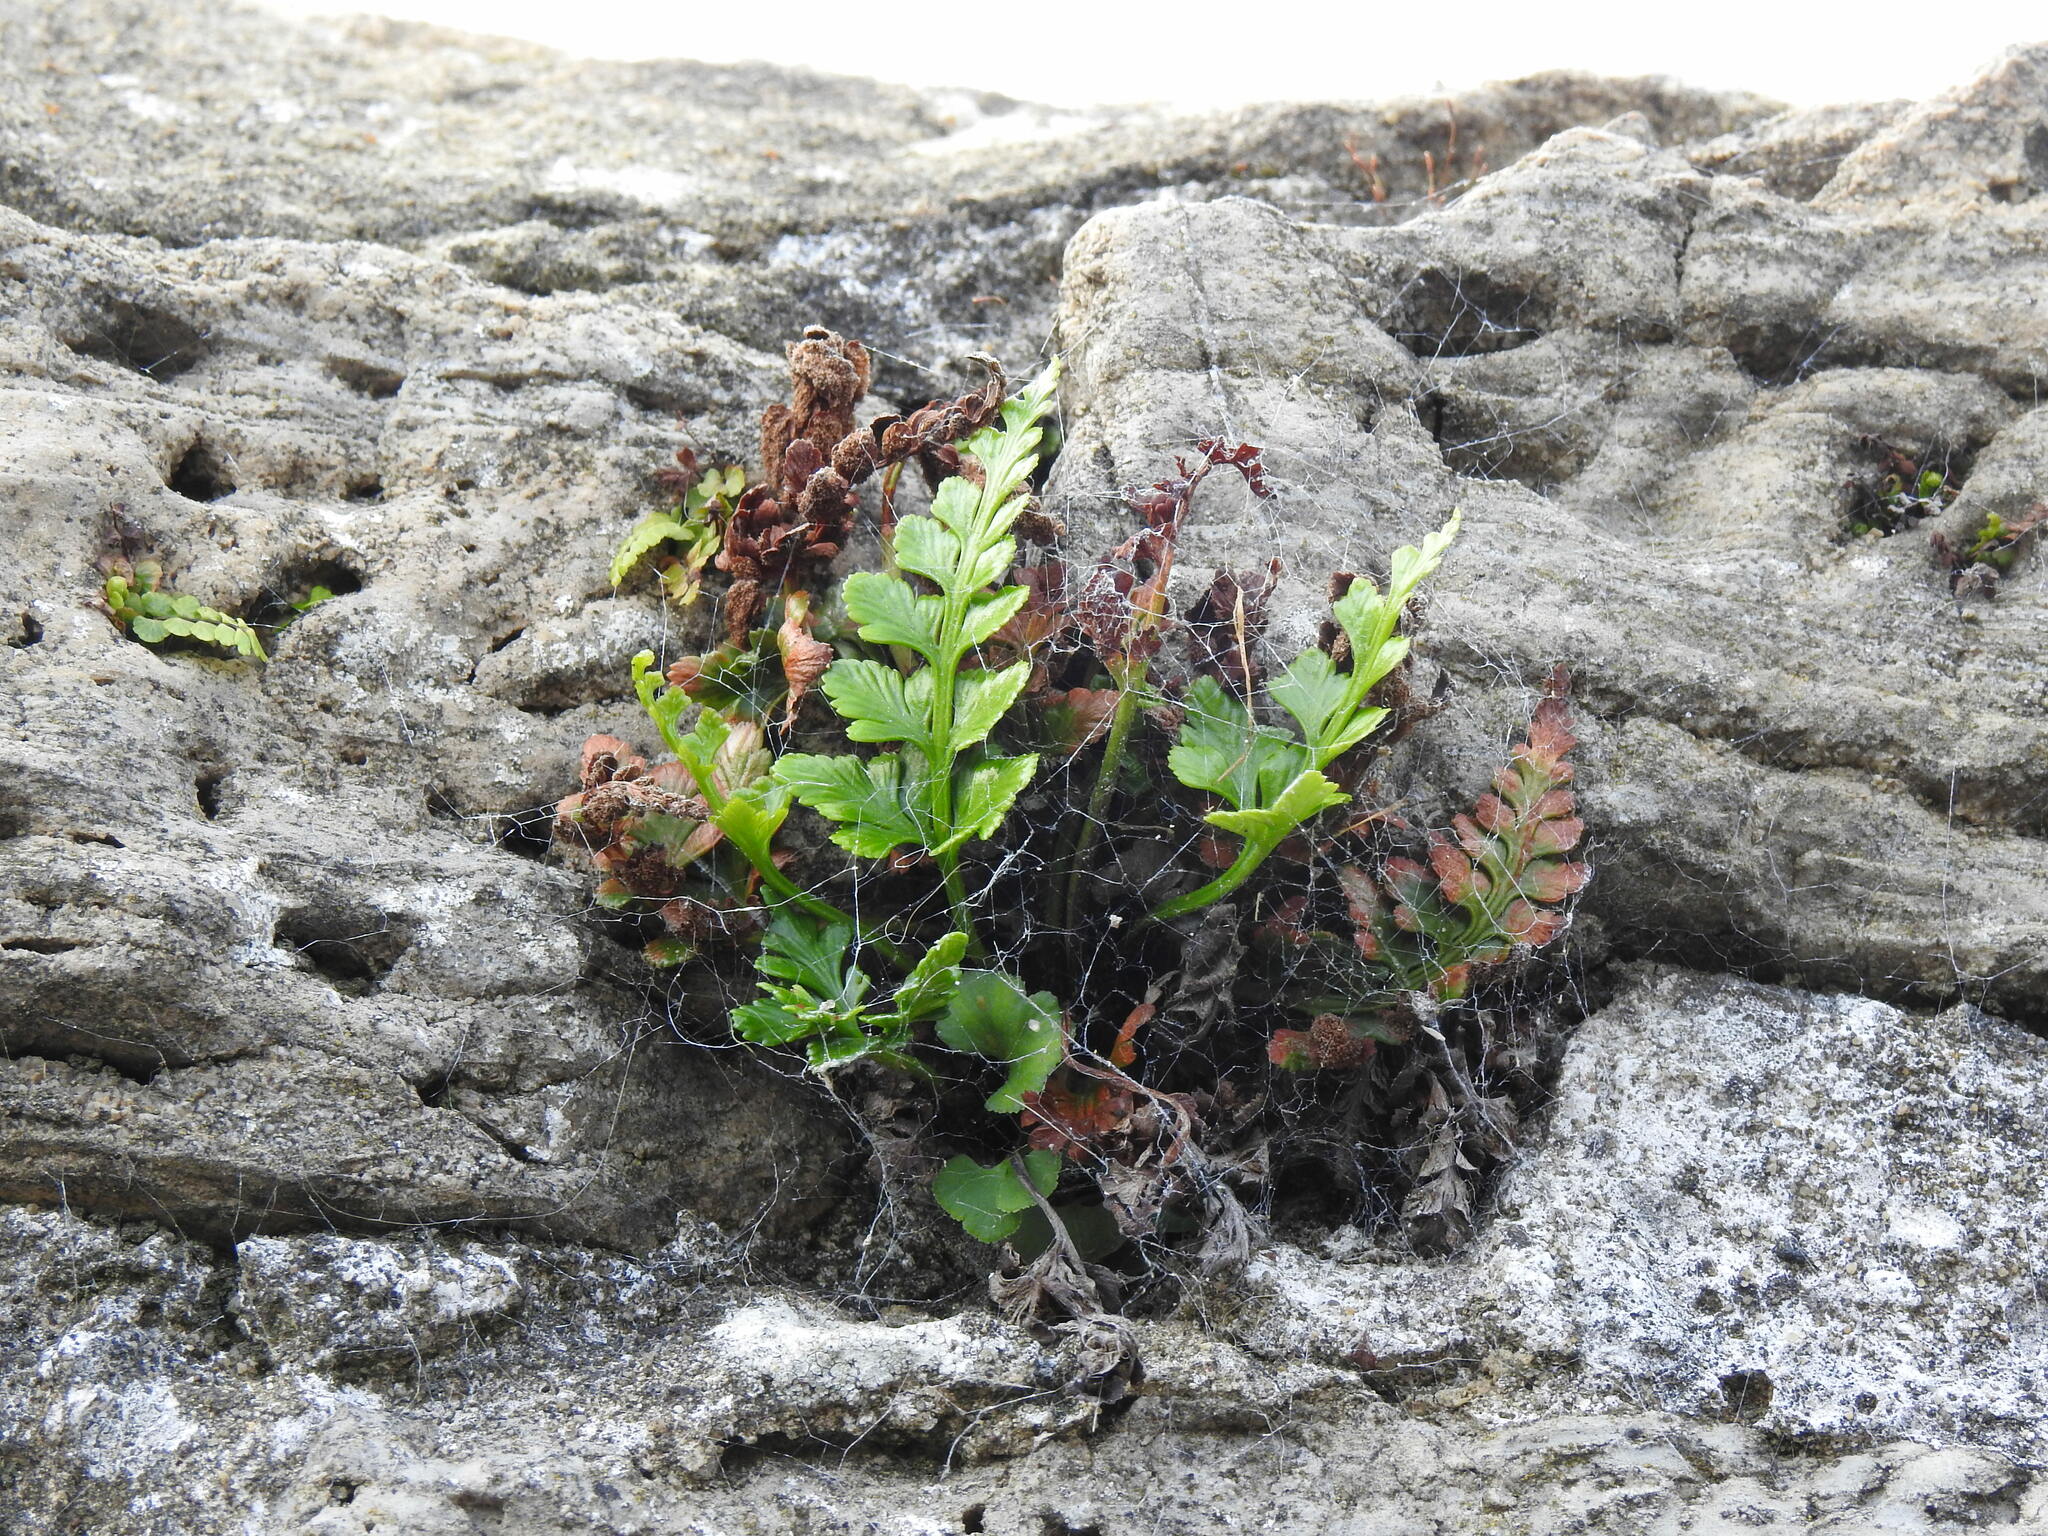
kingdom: Plantae
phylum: Tracheophyta
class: Polypodiopsida
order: Polypodiales
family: Aspleniaceae
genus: Asplenium
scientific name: Asplenium adiantum-nigrum
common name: Black spleenwort
